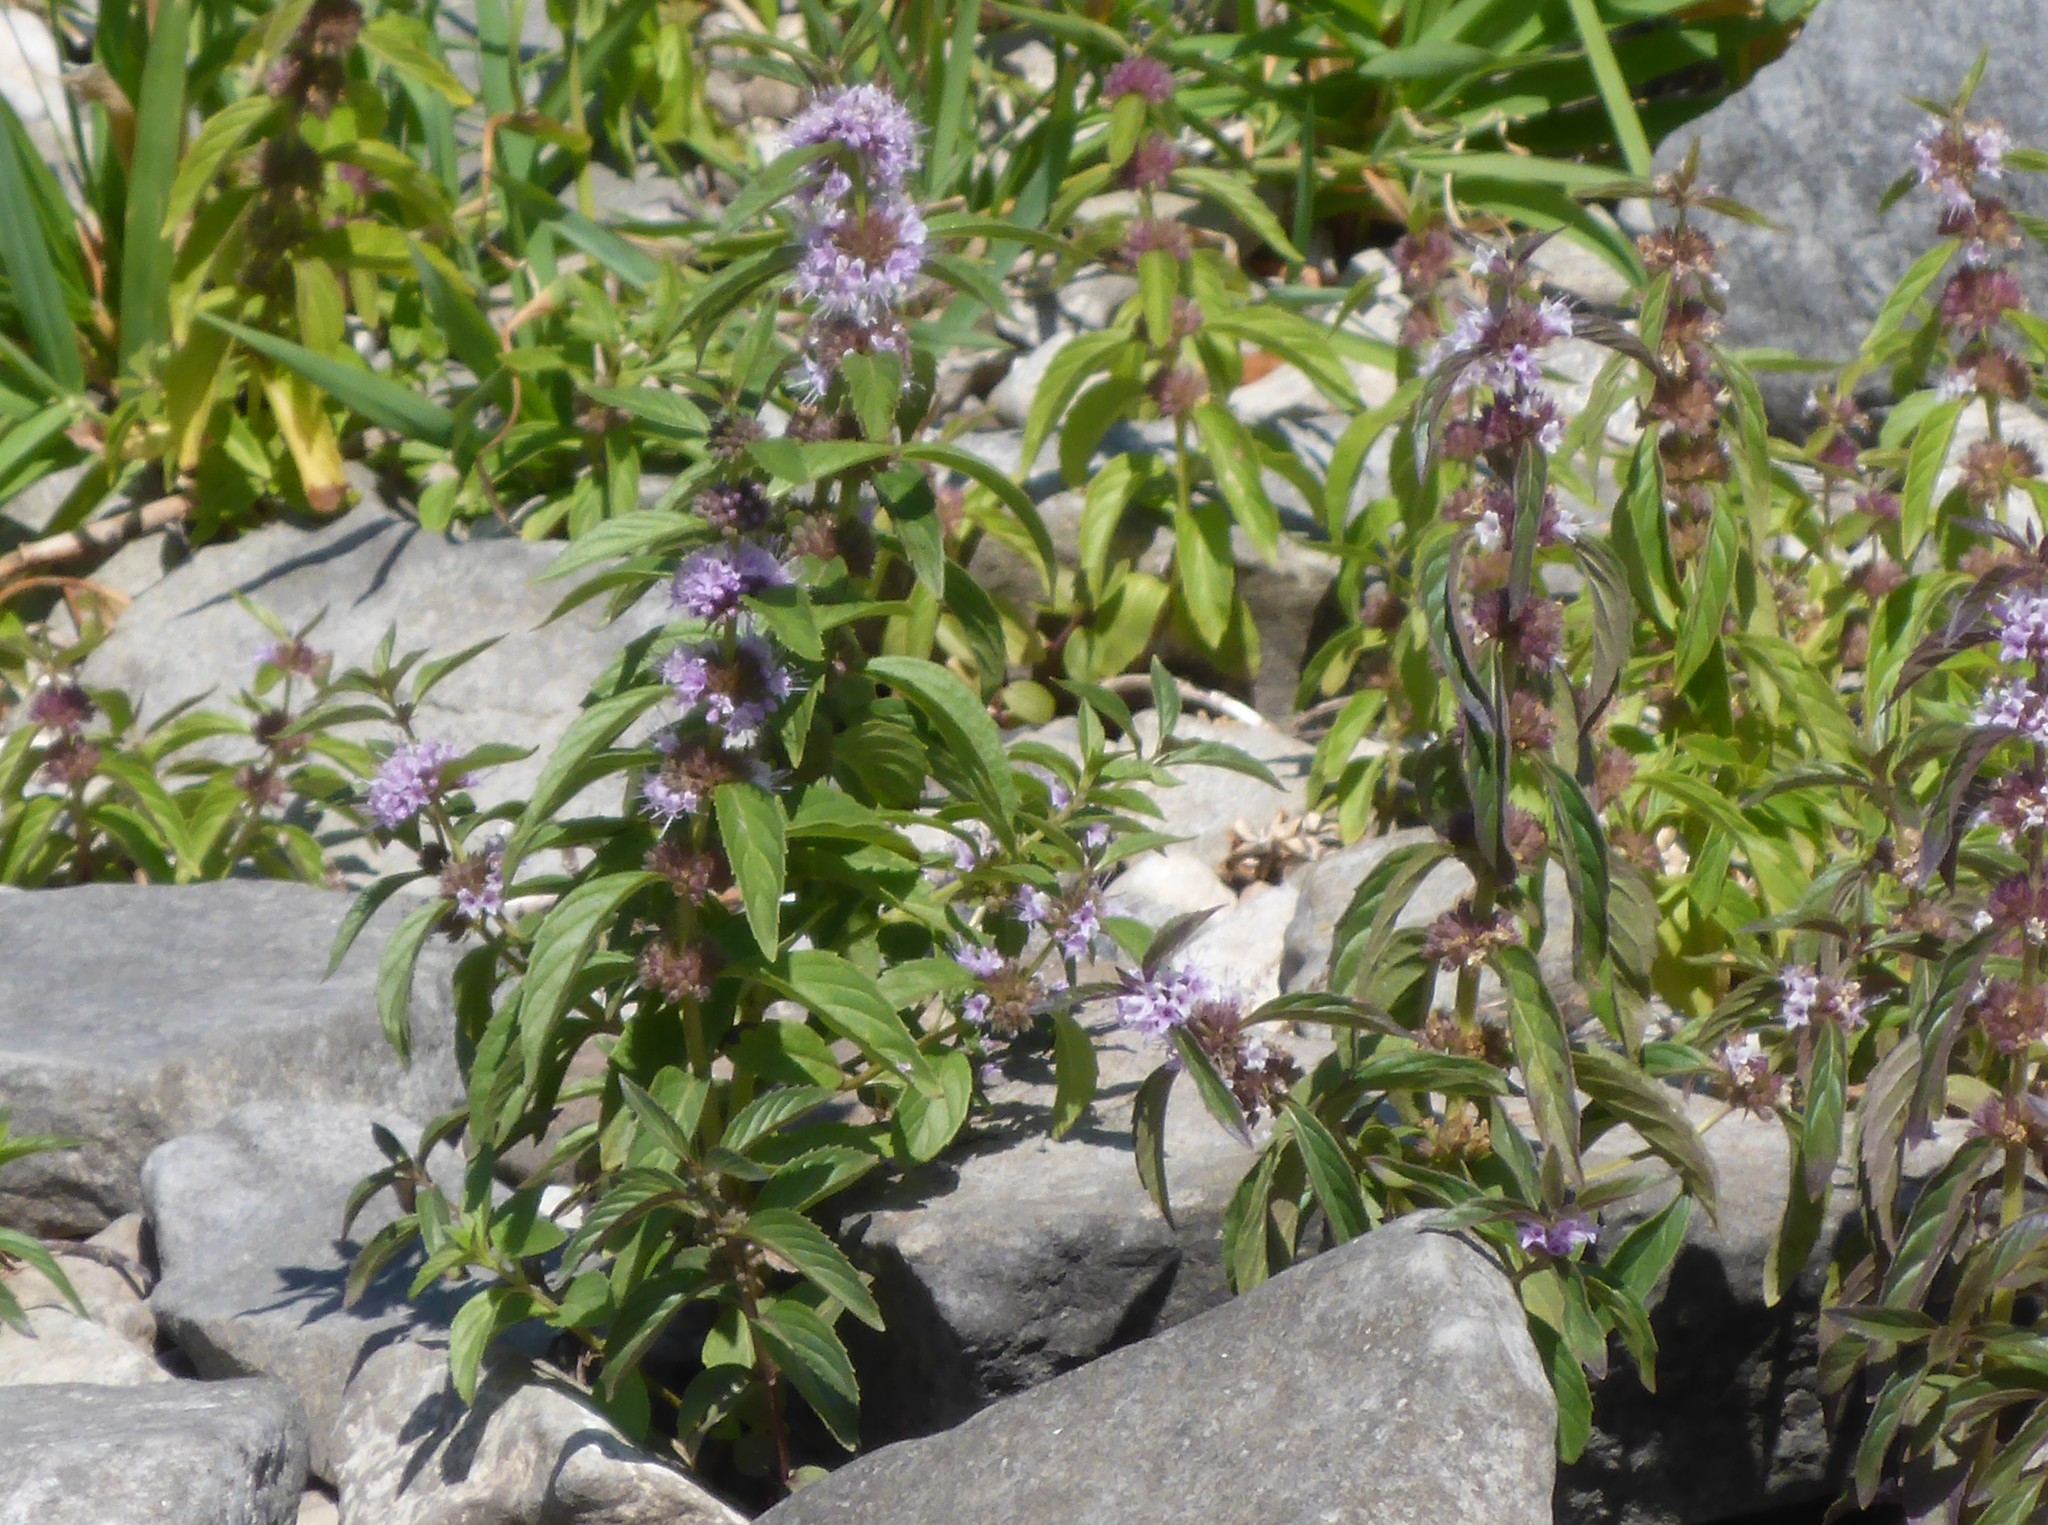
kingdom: Plantae
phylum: Tracheophyta
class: Magnoliopsida
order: Lamiales
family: Lamiaceae
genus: Mentha
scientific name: Mentha canadensis
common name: American corn mint
